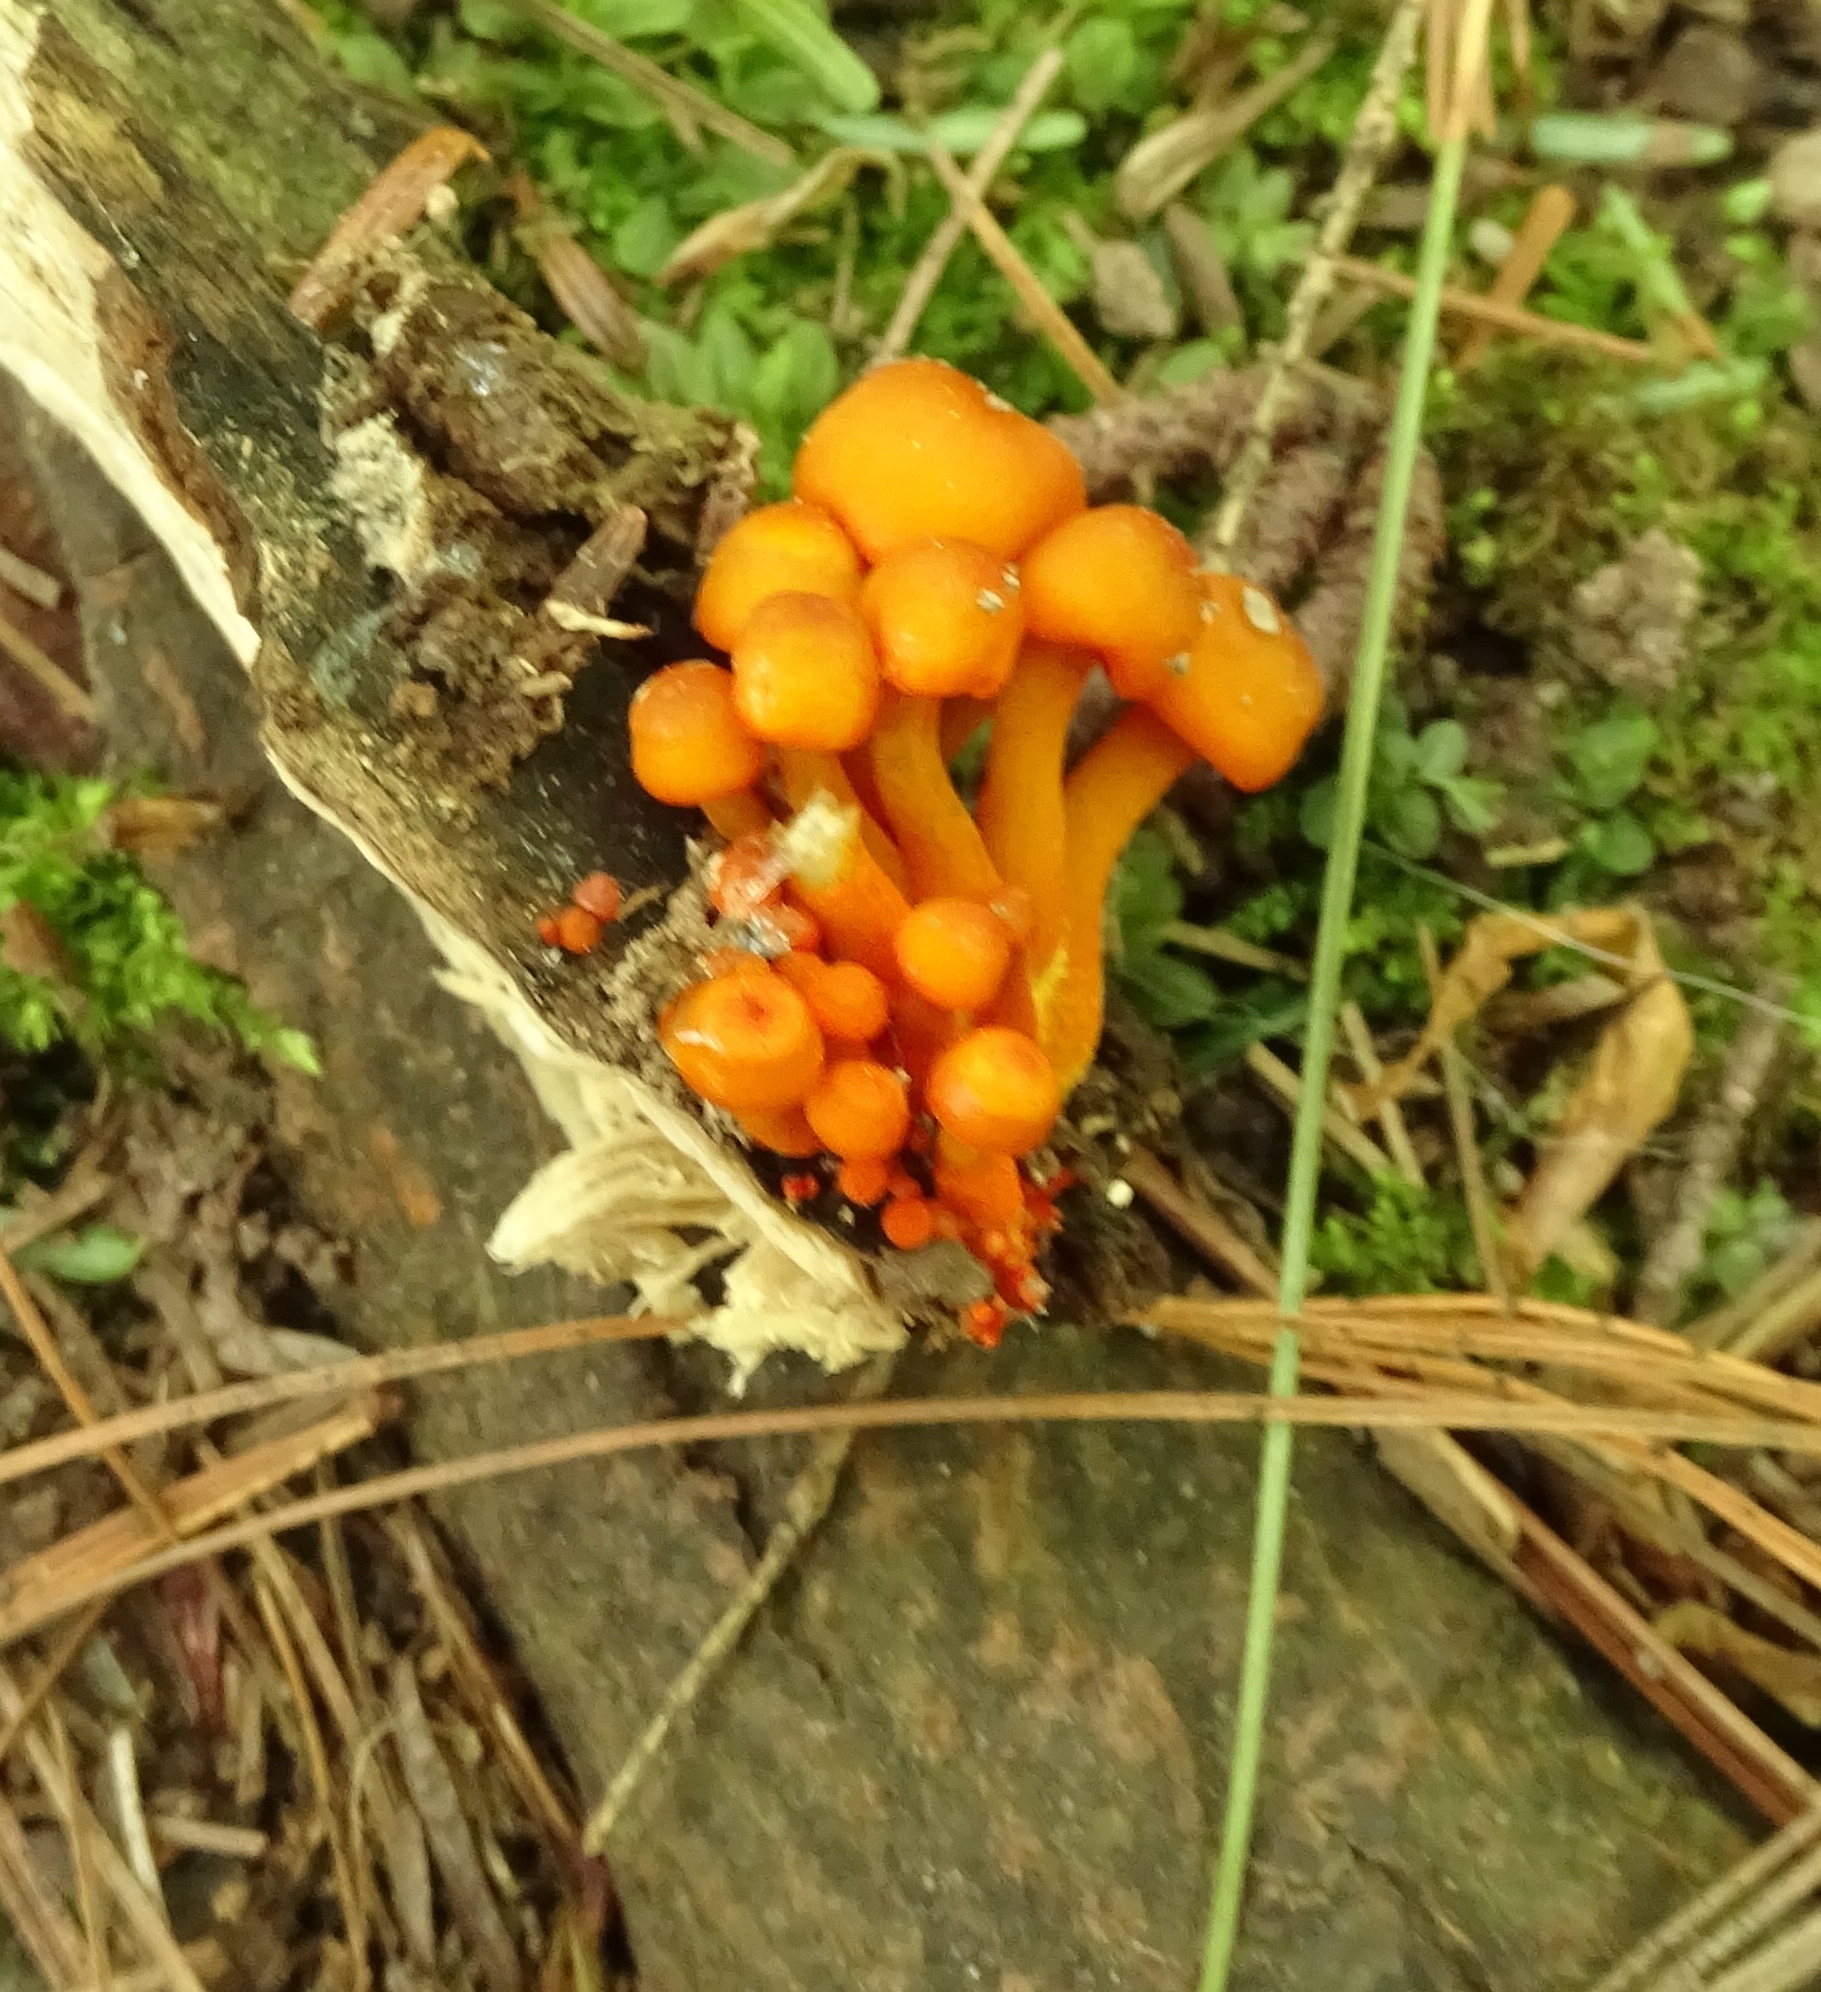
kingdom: Fungi
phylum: Basidiomycota
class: Agaricomycetes
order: Agaricales
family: Mycenaceae
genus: Mycena
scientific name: Mycena leaiana
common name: Orange mycena
